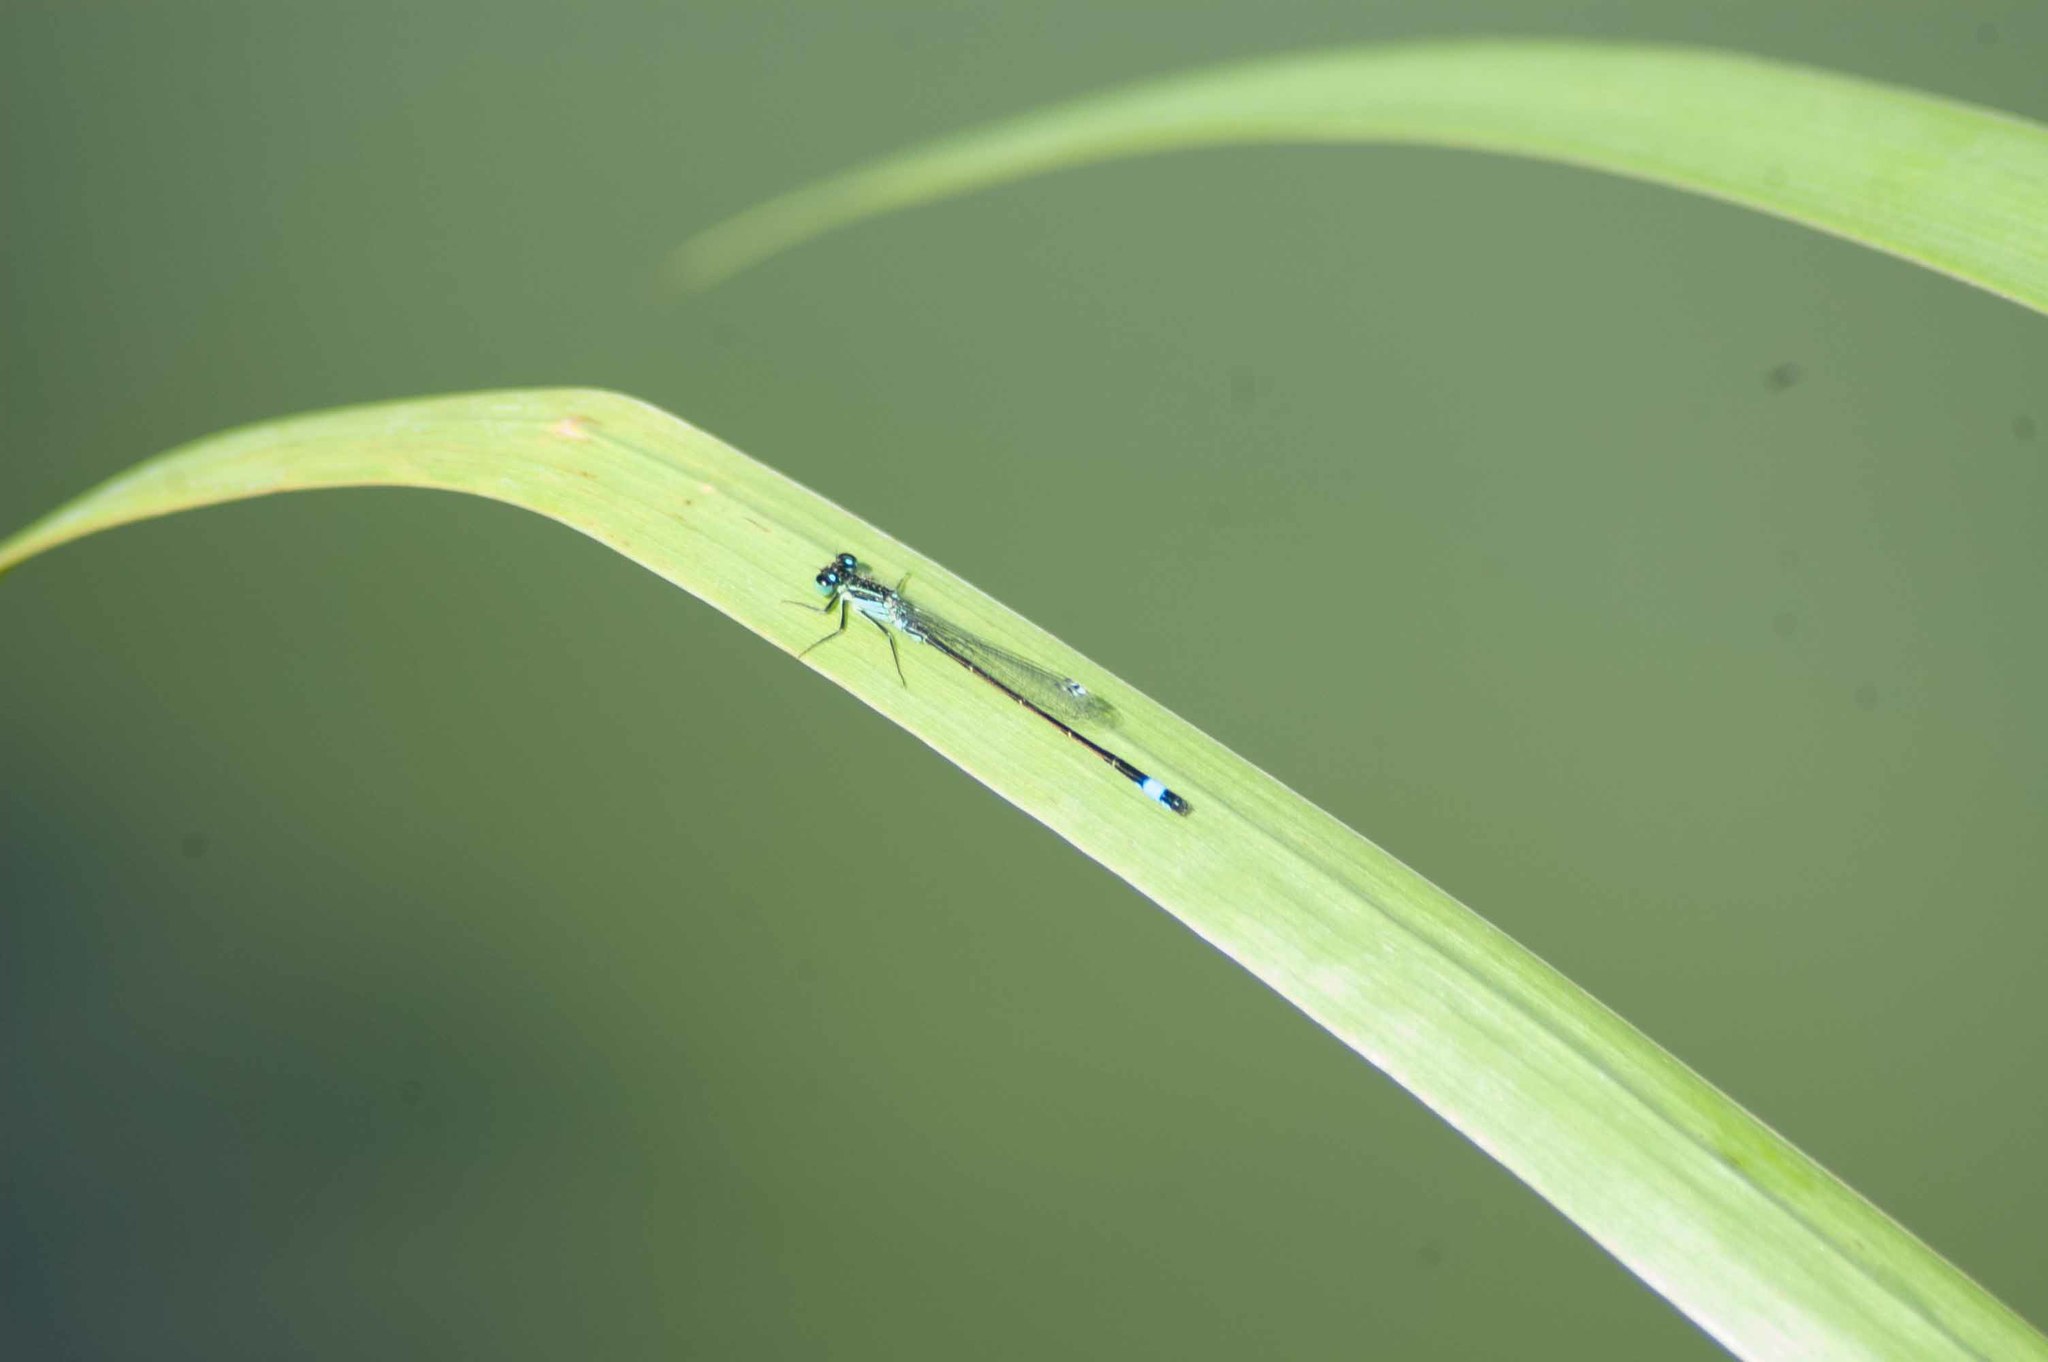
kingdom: Animalia
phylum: Arthropoda
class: Insecta
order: Odonata
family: Coenagrionidae
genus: Ischnura
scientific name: Ischnura elegans
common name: Blue-tailed damselfly
